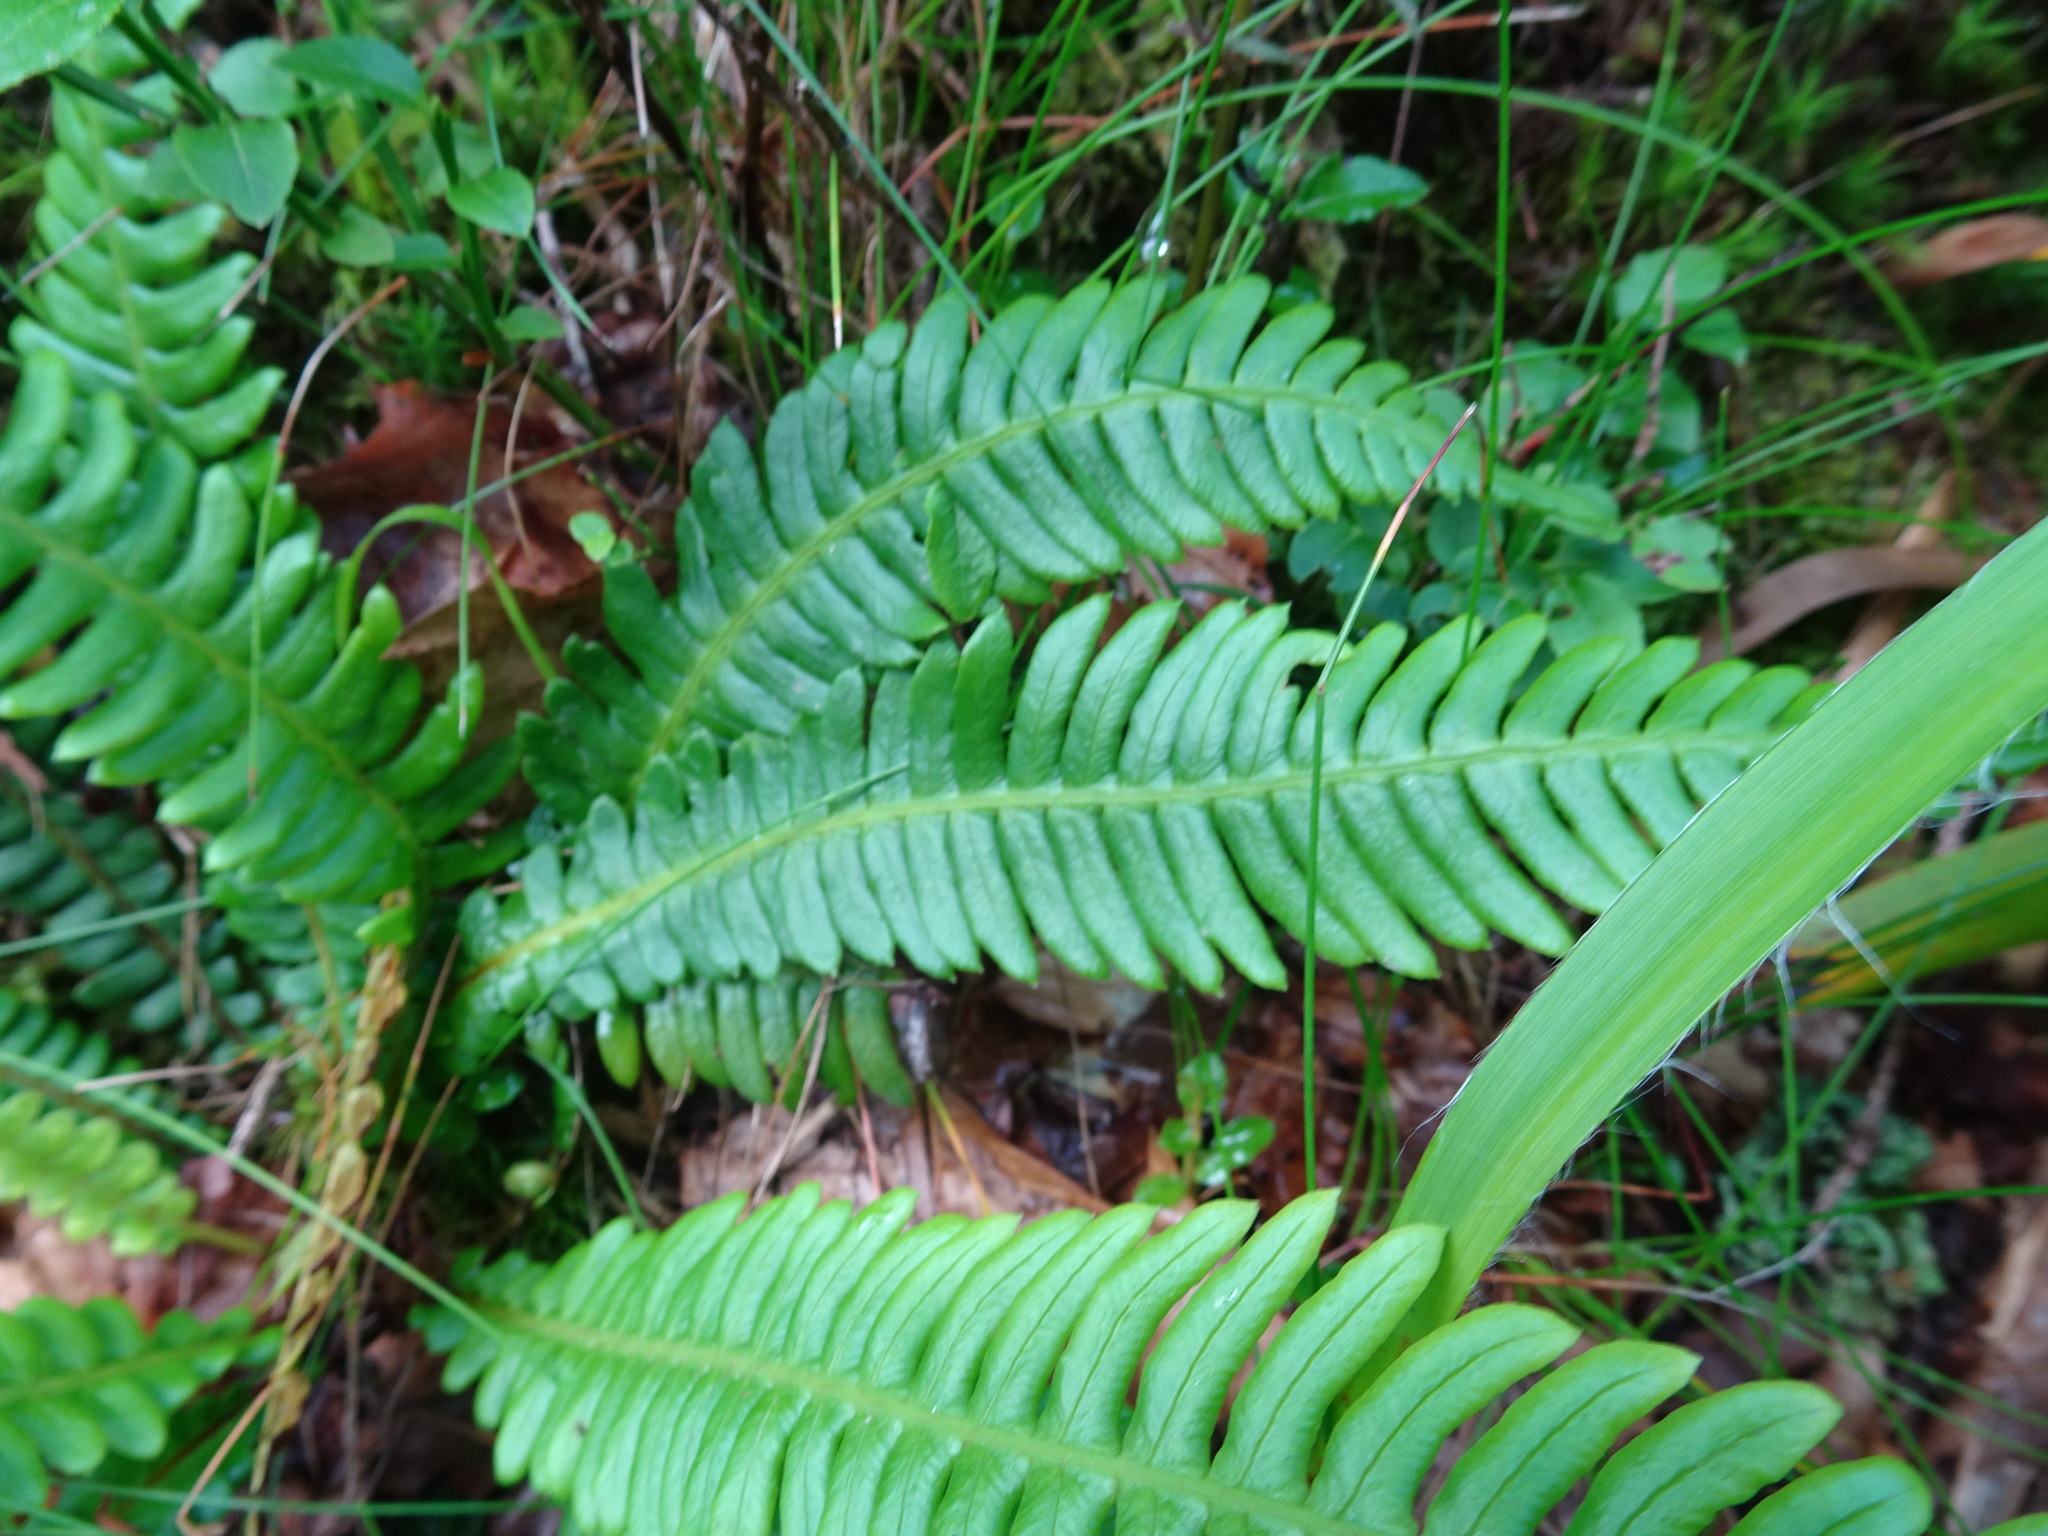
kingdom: Plantae
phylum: Tracheophyta
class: Polypodiopsida
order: Polypodiales
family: Blechnaceae
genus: Struthiopteris
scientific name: Struthiopteris spicant
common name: Deer fern
